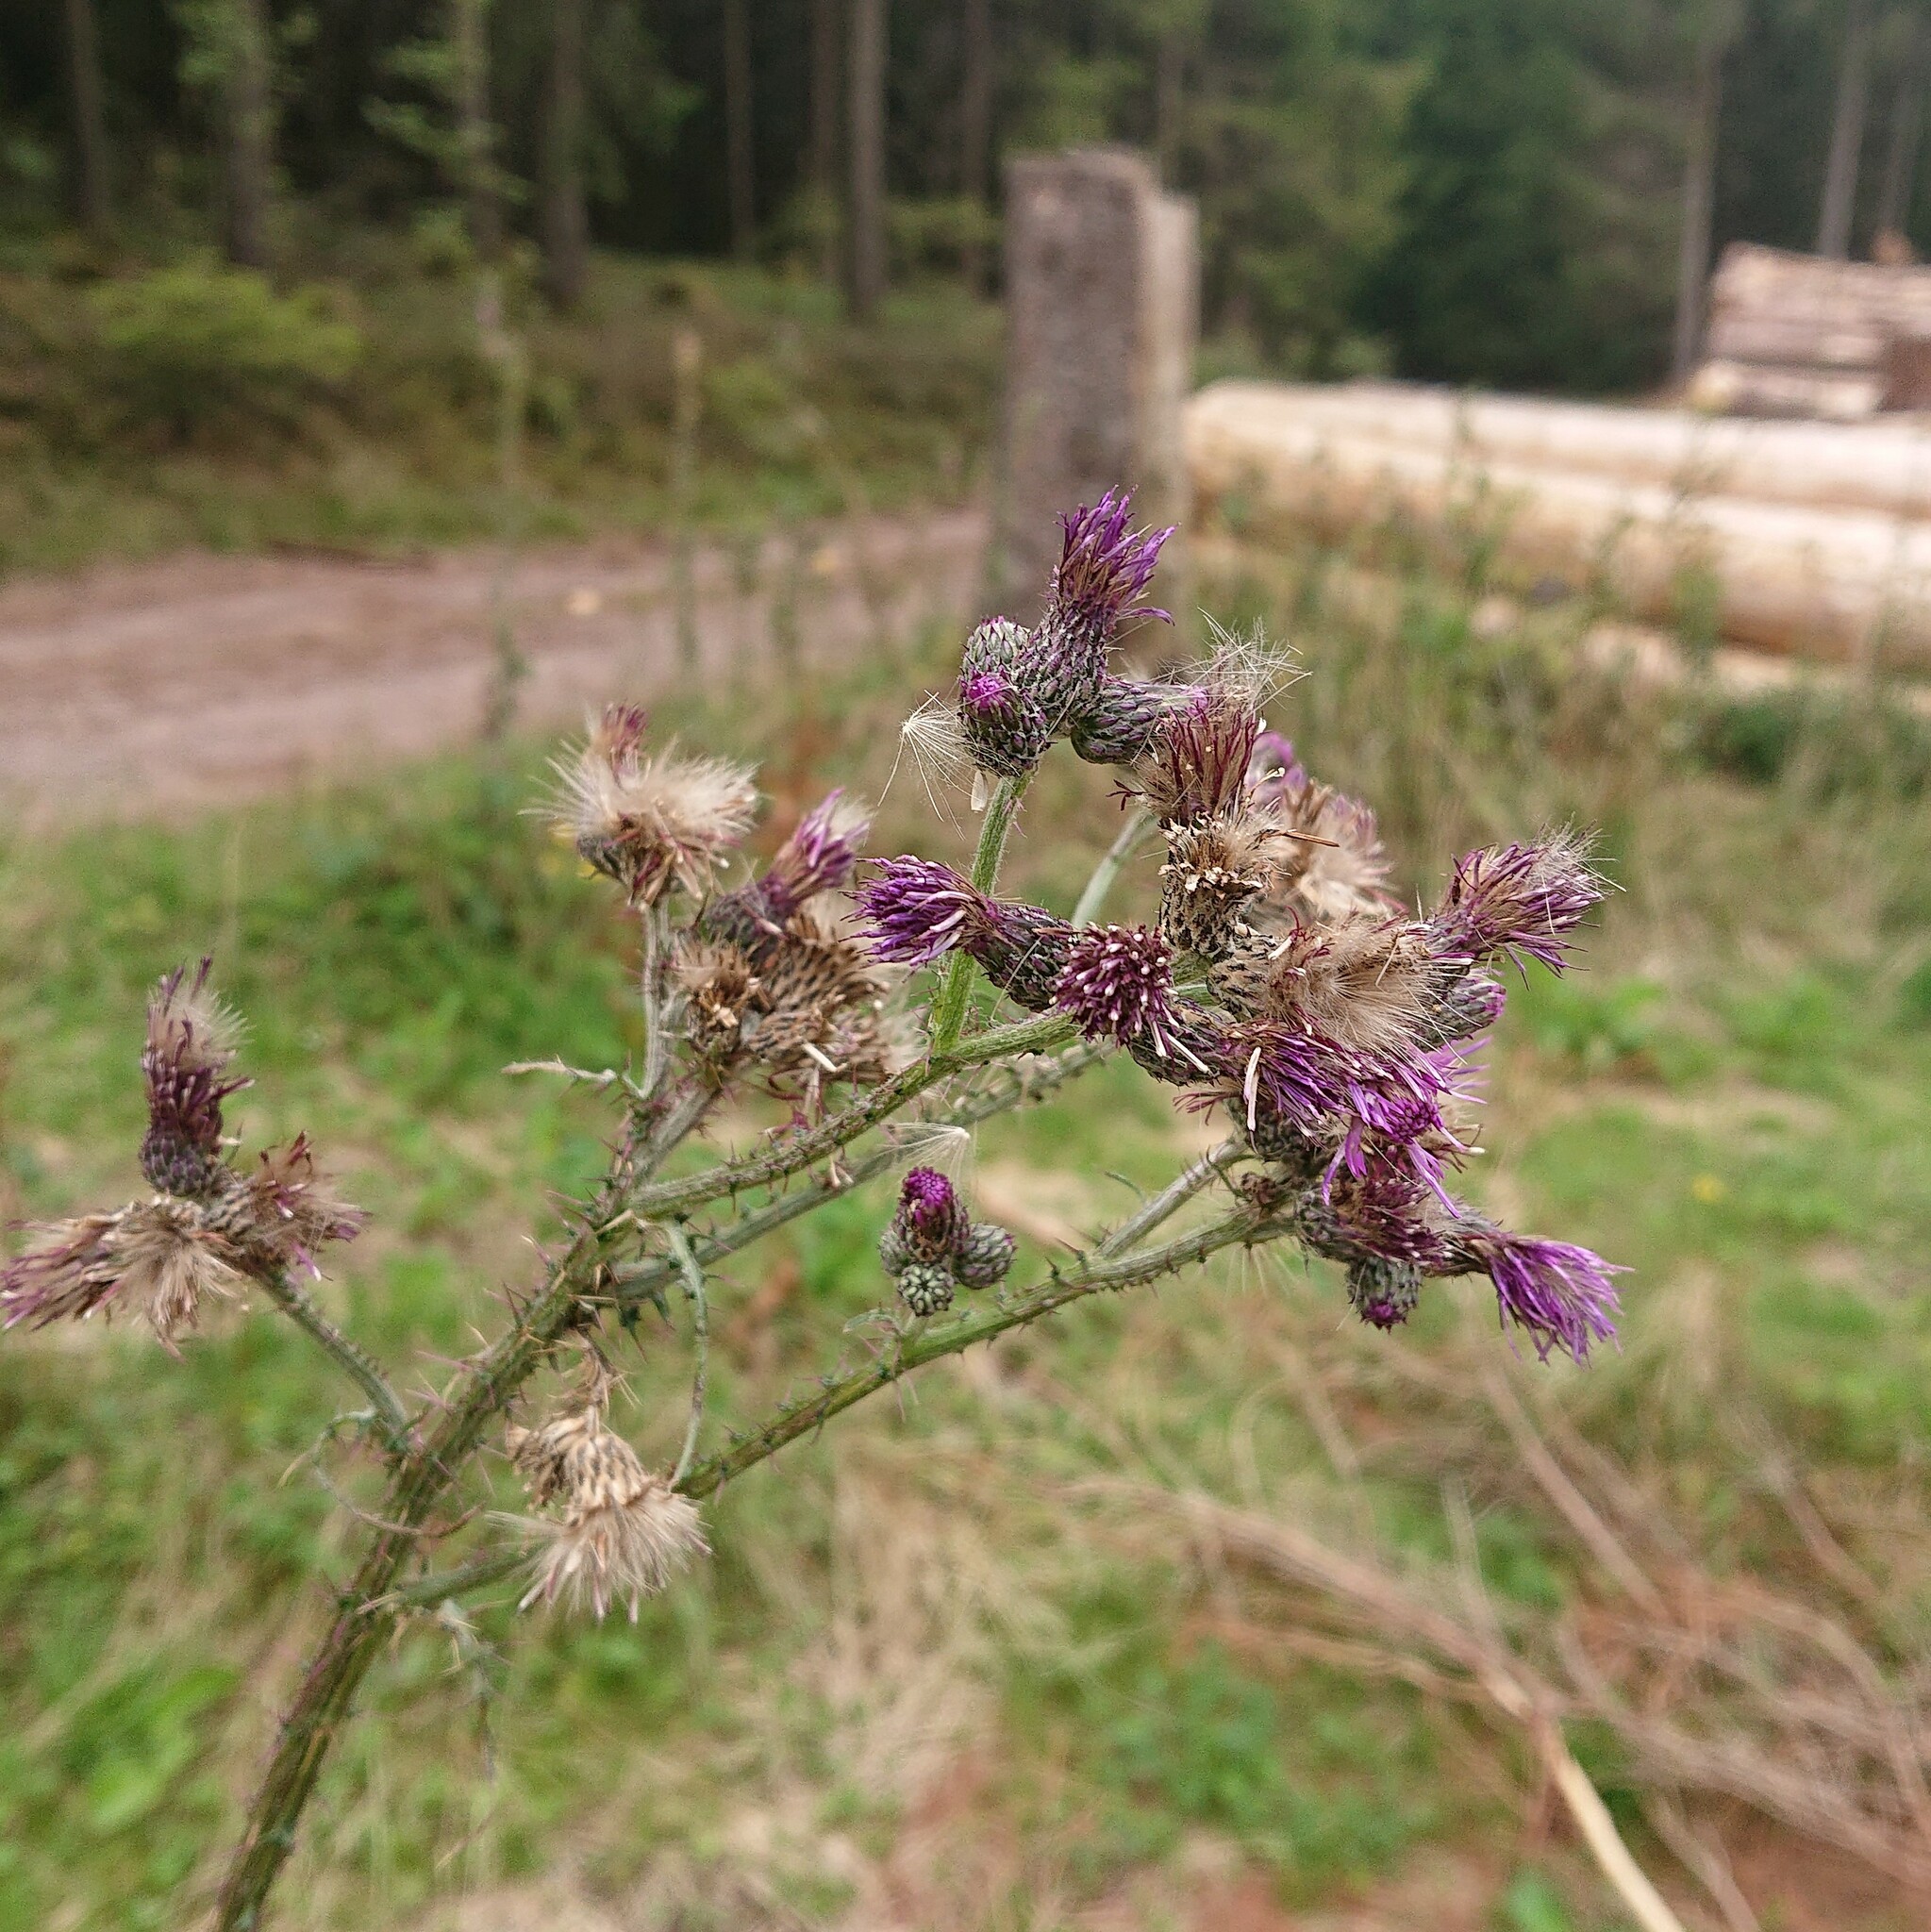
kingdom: Plantae
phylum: Tracheophyta
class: Magnoliopsida
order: Asterales
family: Asteraceae
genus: Cirsium
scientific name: Cirsium palustre
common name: Marsh thistle
